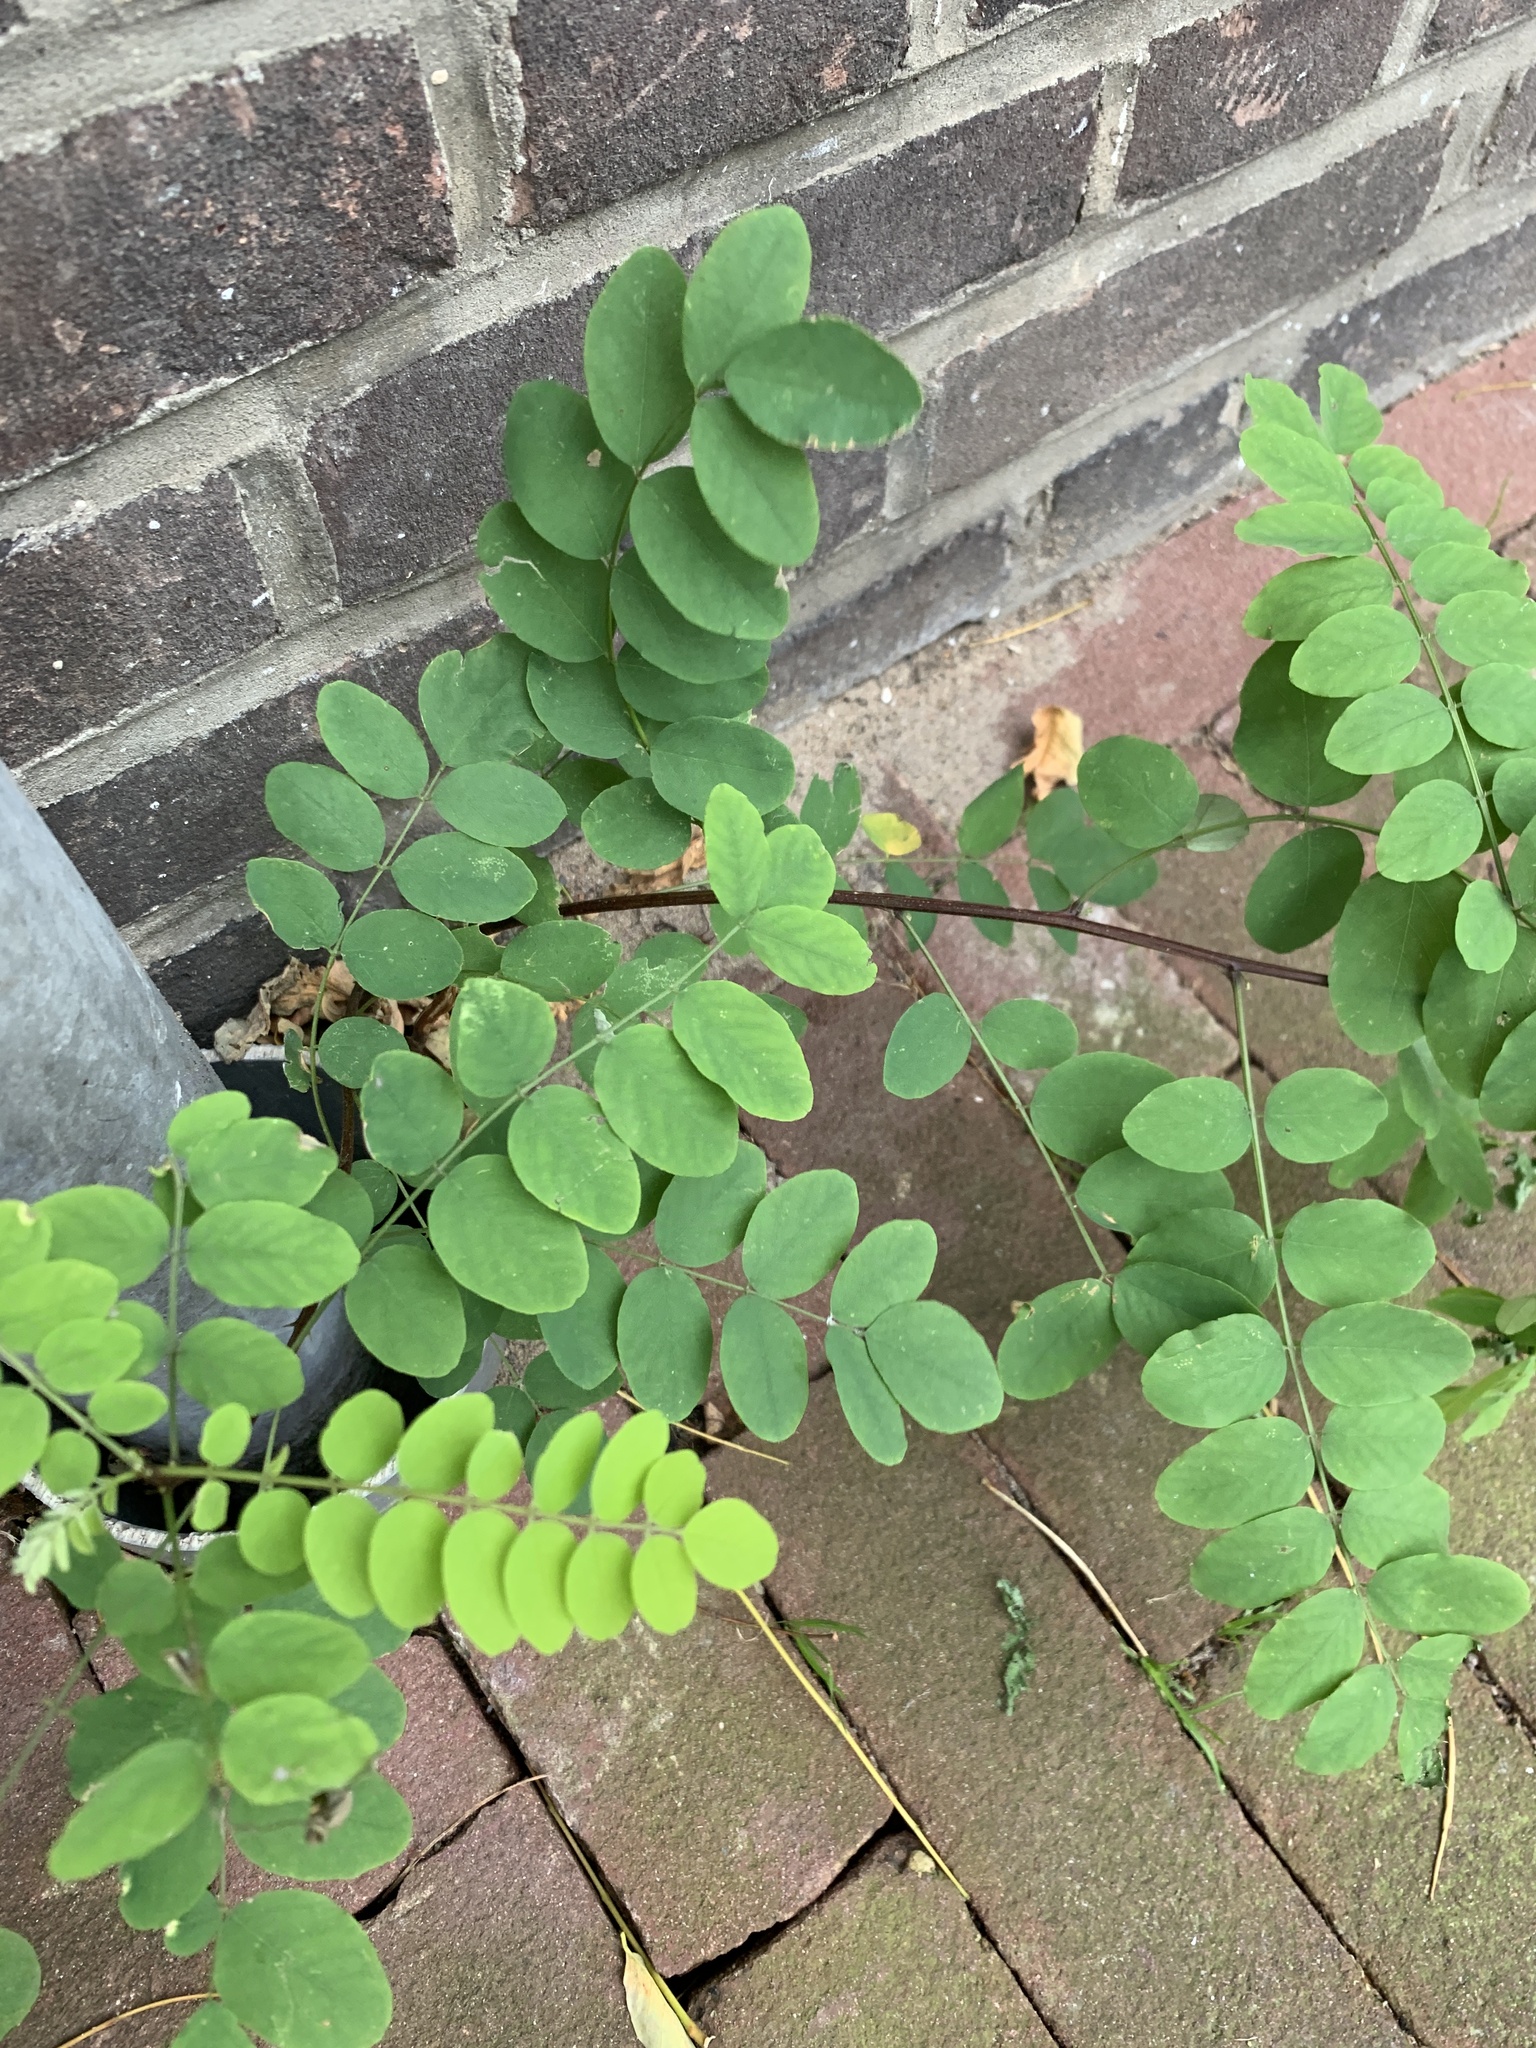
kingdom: Plantae
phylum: Tracheophyta
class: Magnoliopsida
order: Fabales
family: Fabaceae
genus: Robinia
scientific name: Robinia pseudoacacia
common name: Black locust
